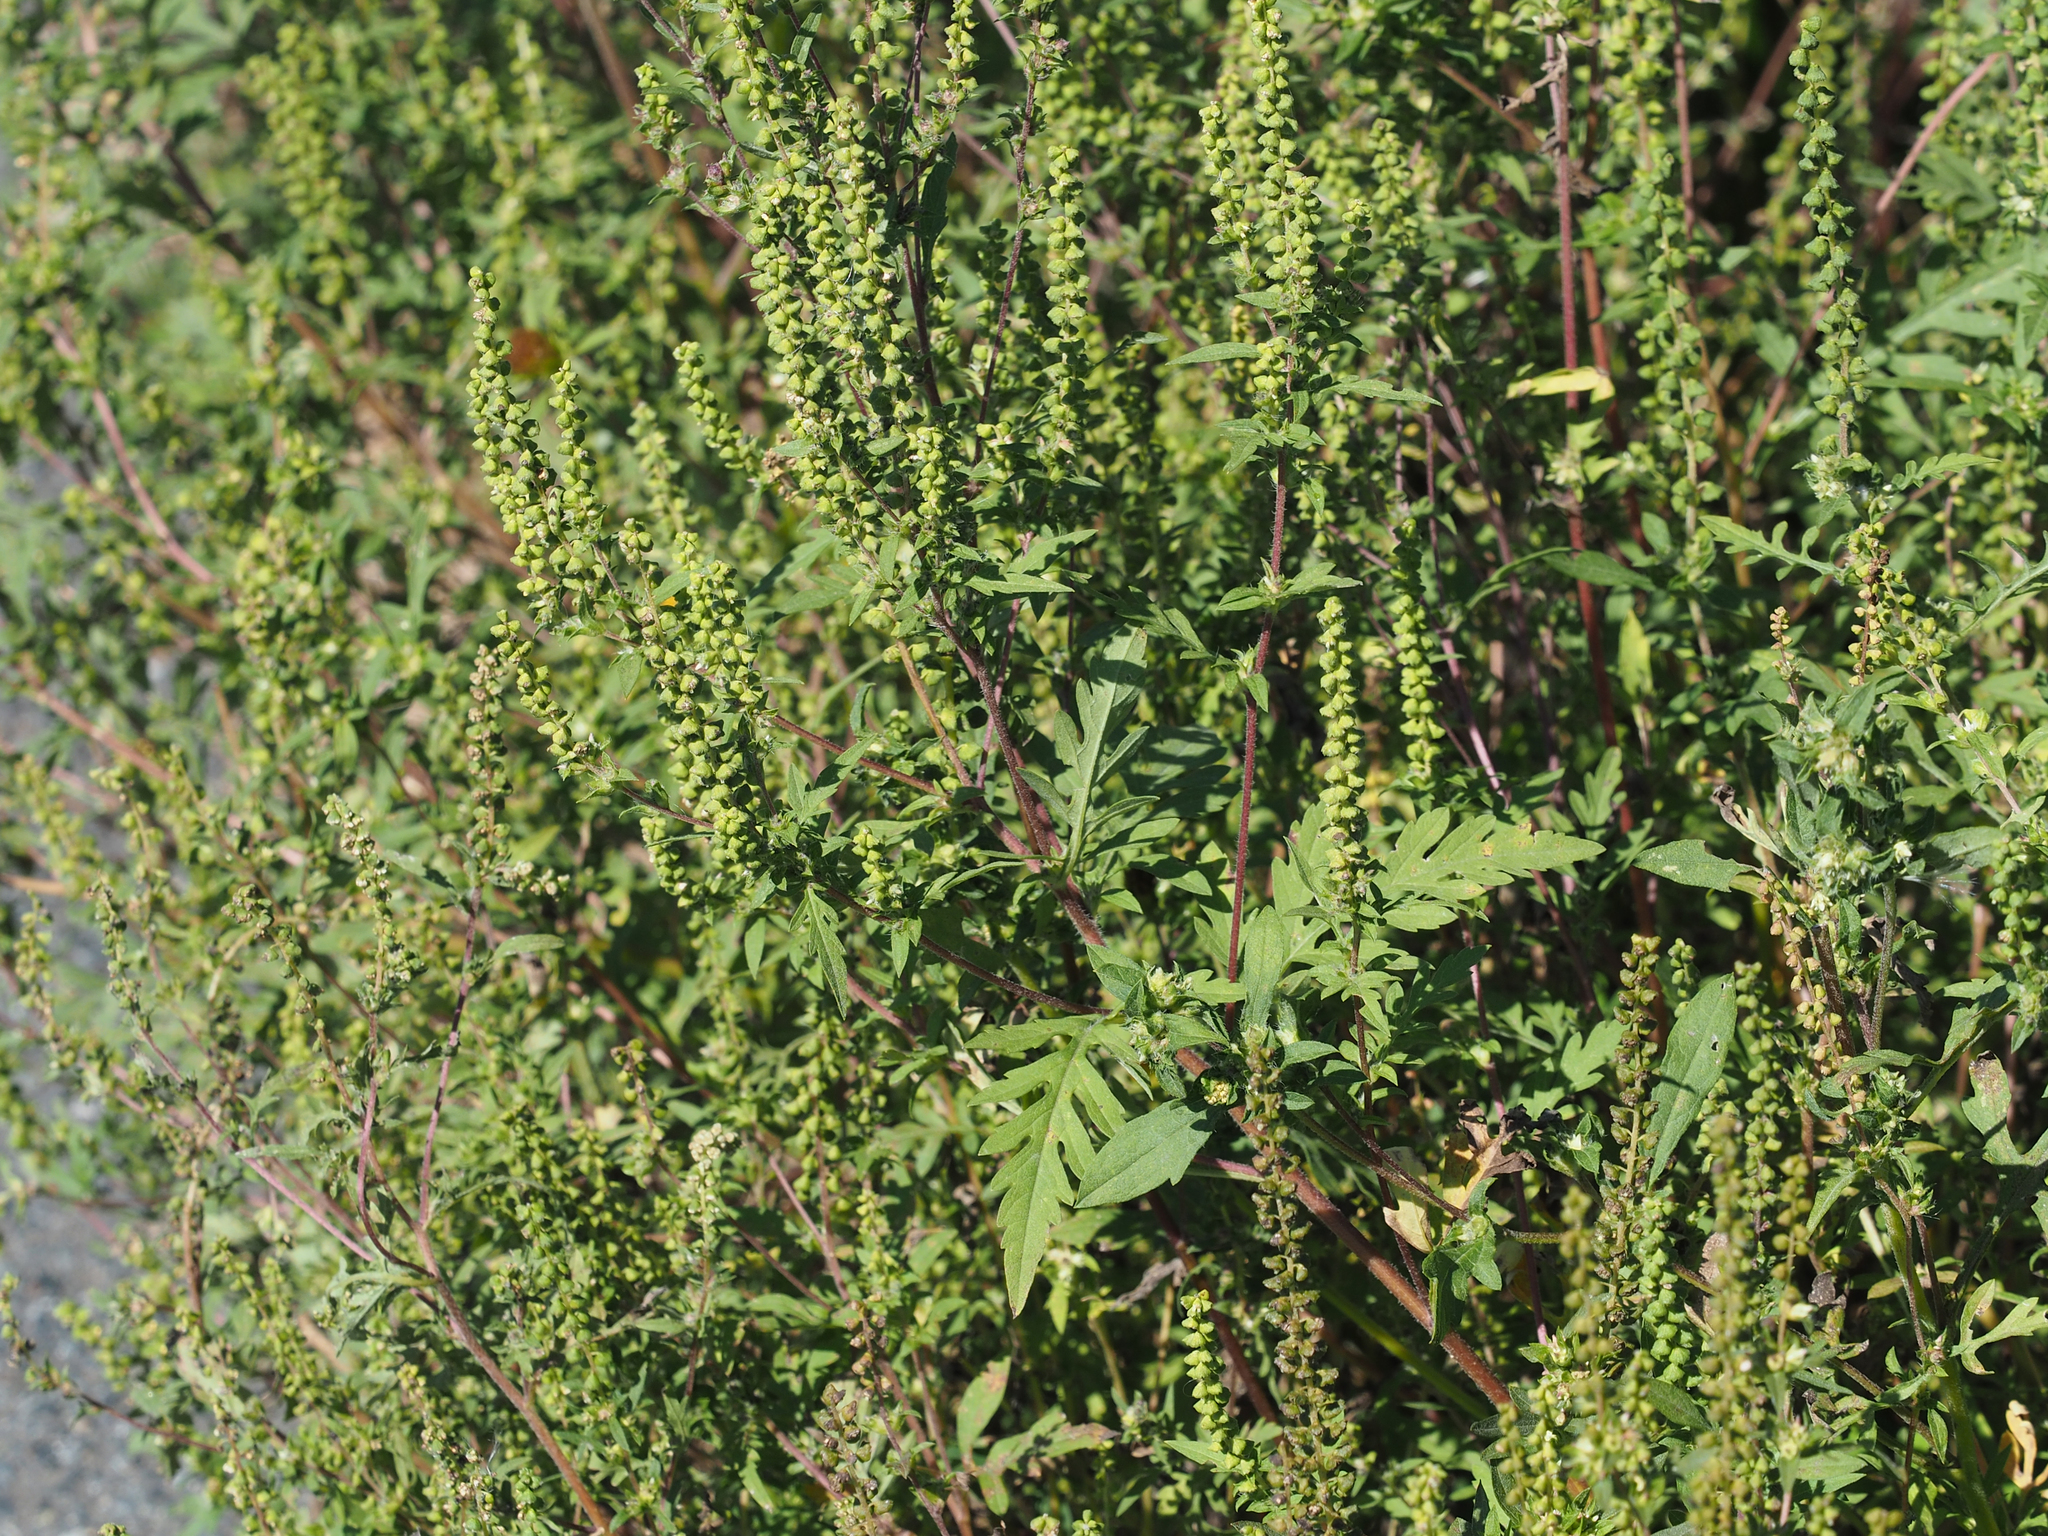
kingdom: Plantae
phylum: Tracheophyta
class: Magnoliopsida
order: Asterales
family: Asteraceae
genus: Ambrosia
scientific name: Ambrosia artemisiifolia
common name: Annual ragweed
